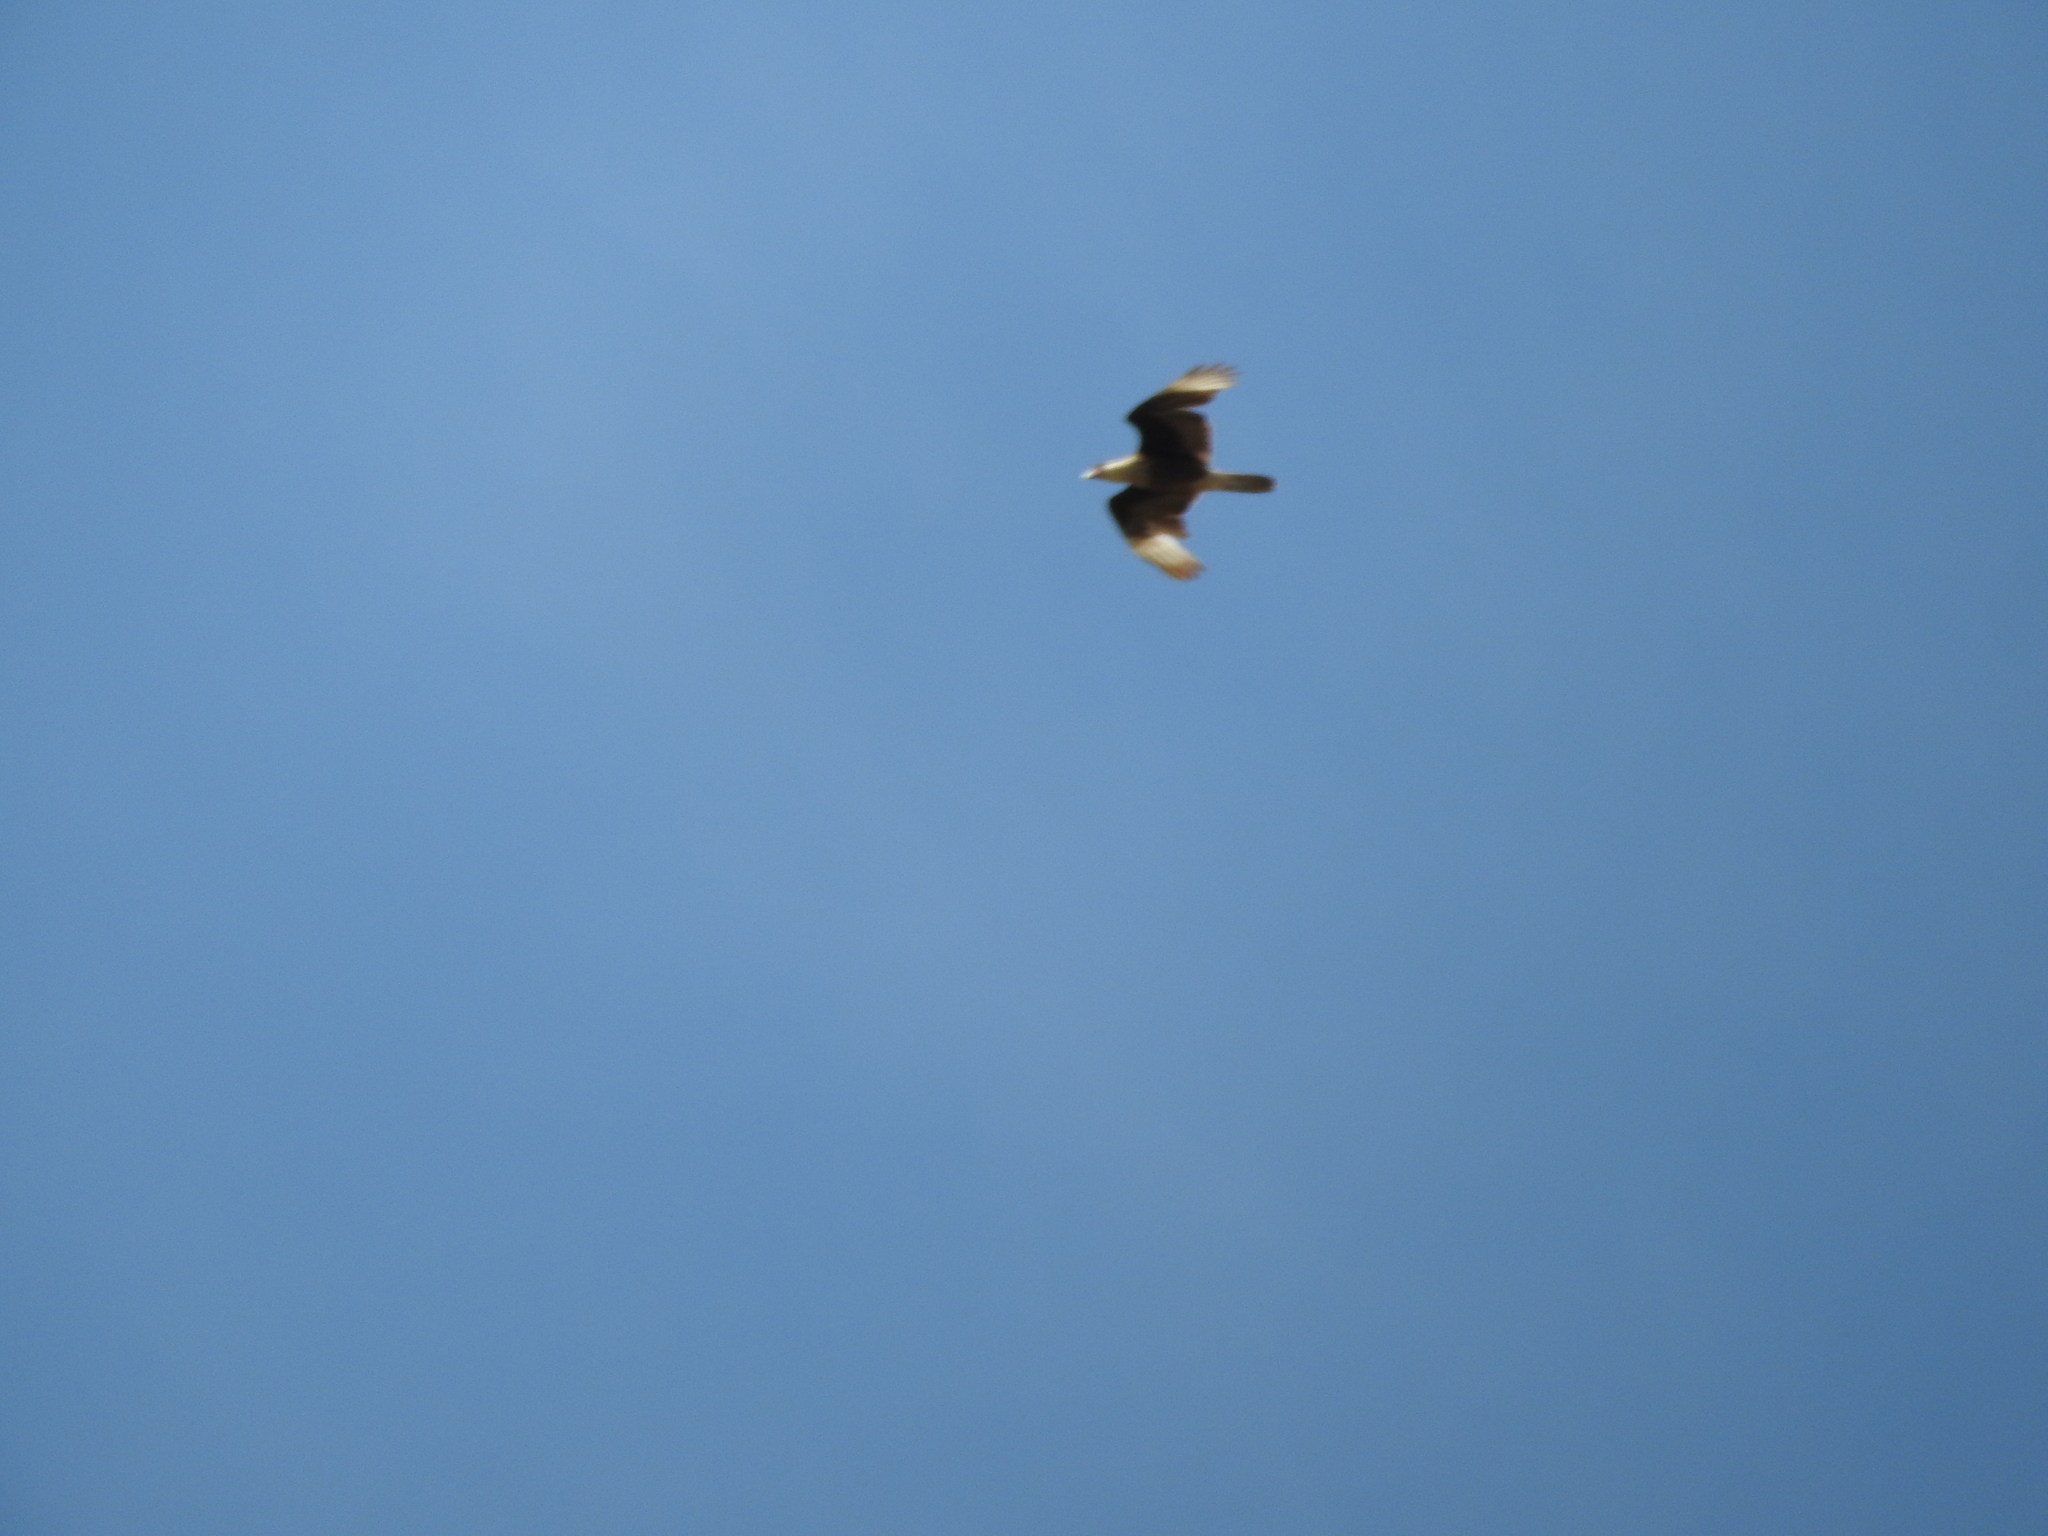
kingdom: Animalia
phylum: Chordata
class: Aves
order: Falconiformes
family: Falconidae
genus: Caracara
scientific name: Caracara plancus
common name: Southern caracara
